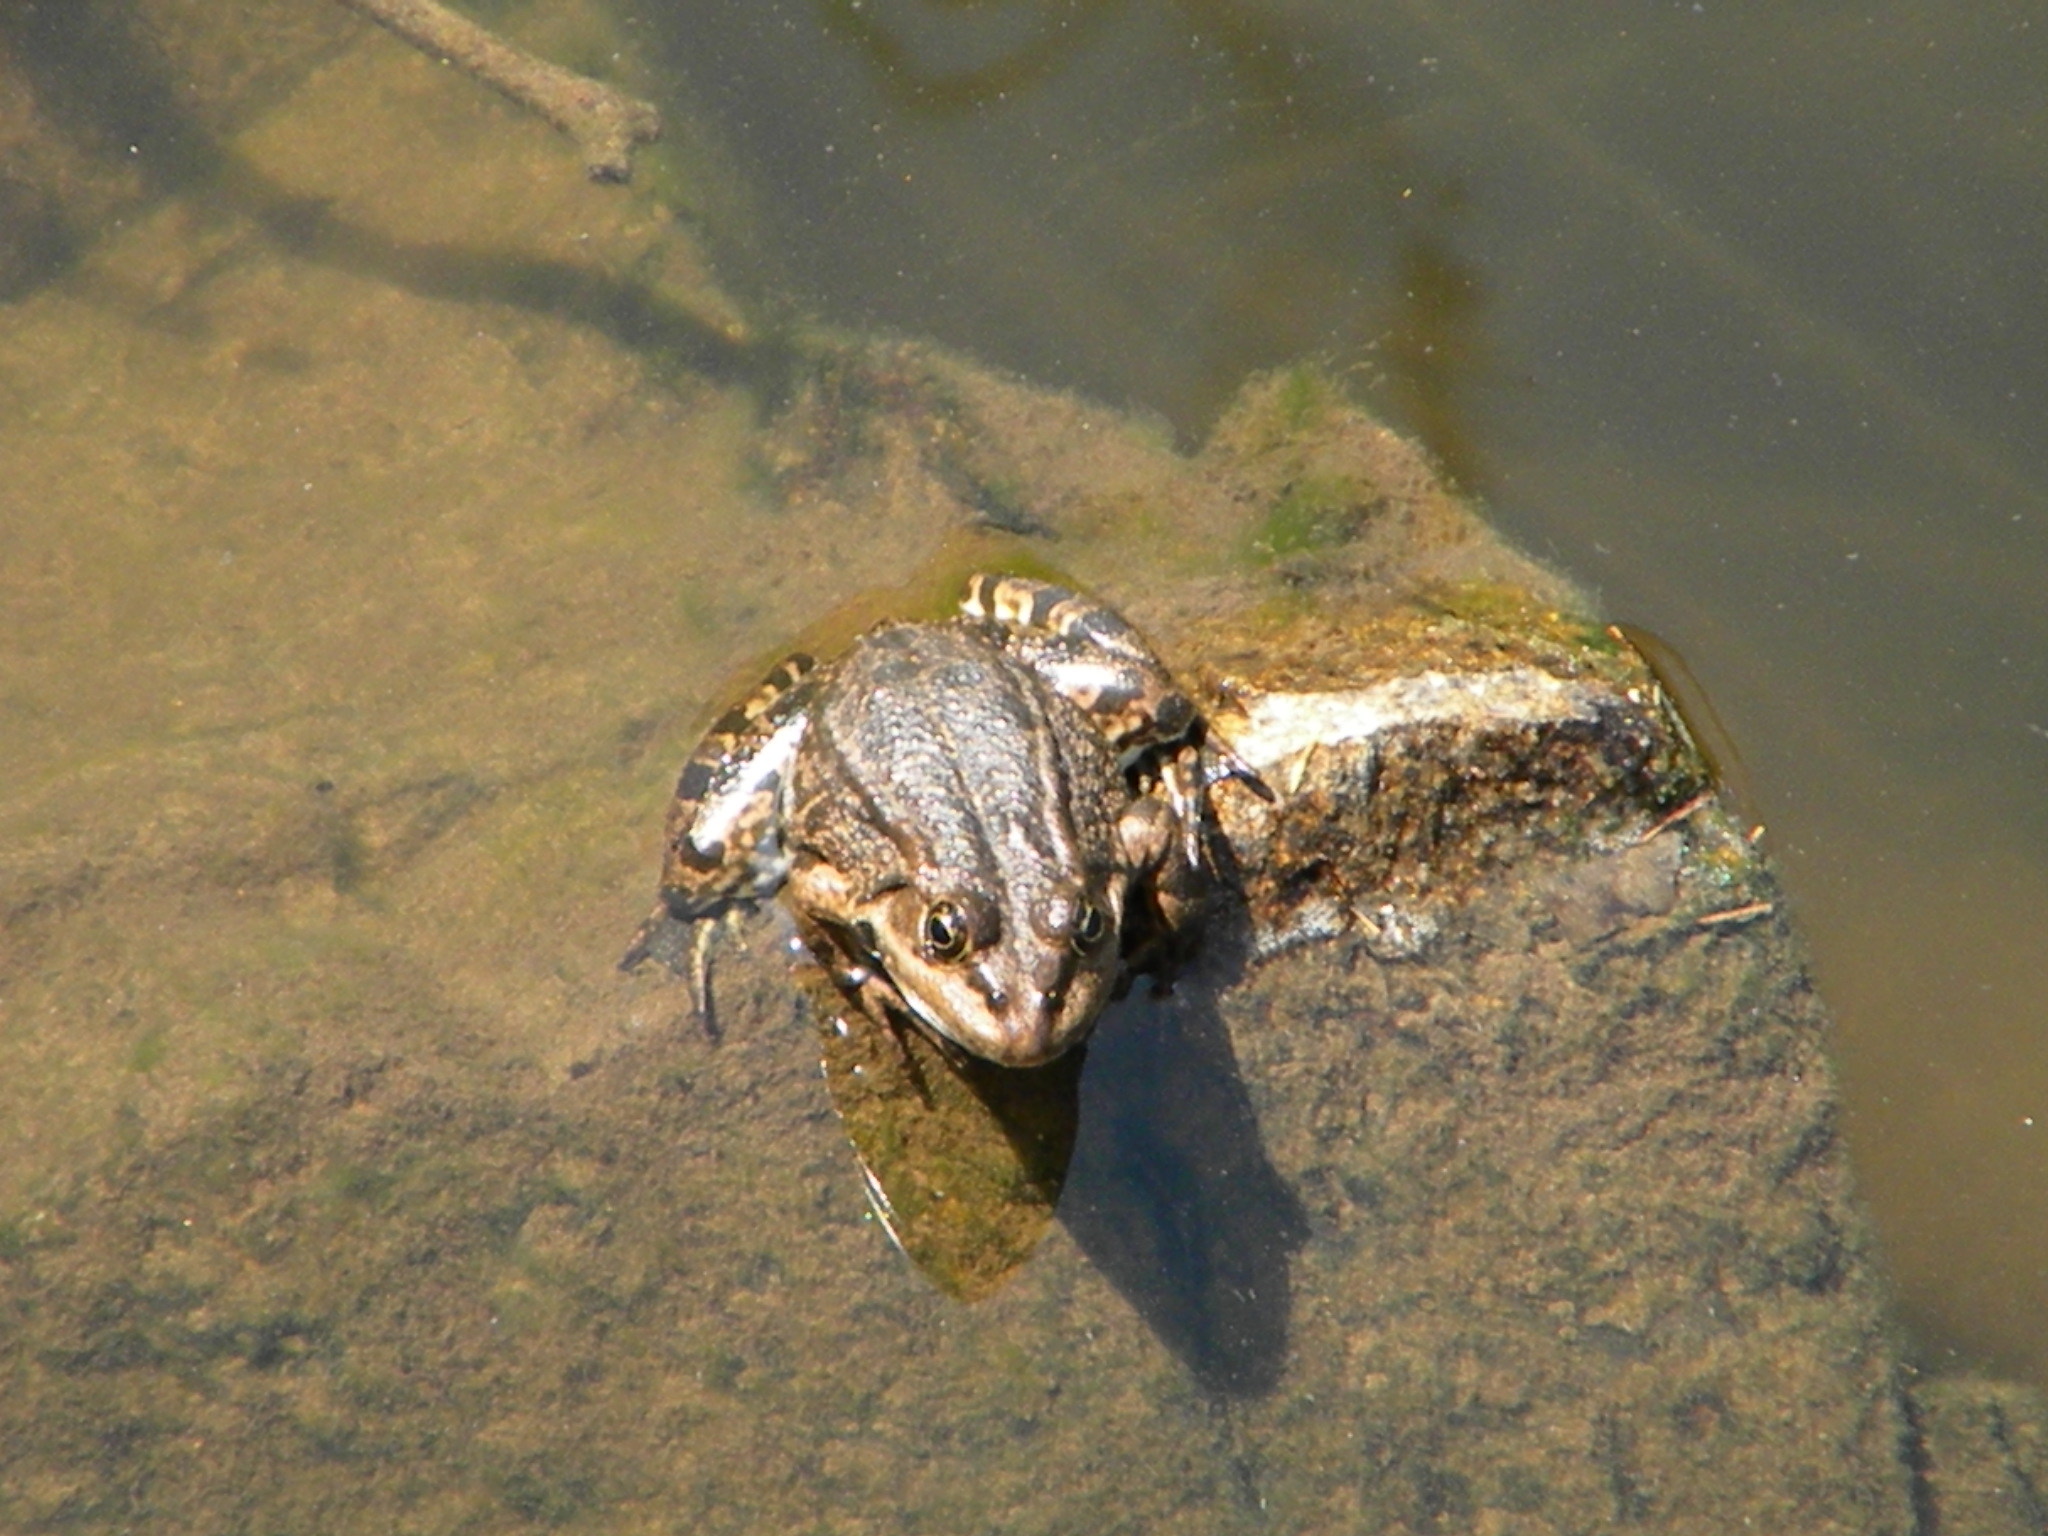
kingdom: Animalia
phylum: Chordata
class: Amphibia
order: Anura
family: Ranidae
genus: Pelophylax
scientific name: Pelophylax ridibundus
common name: Marsh frog
